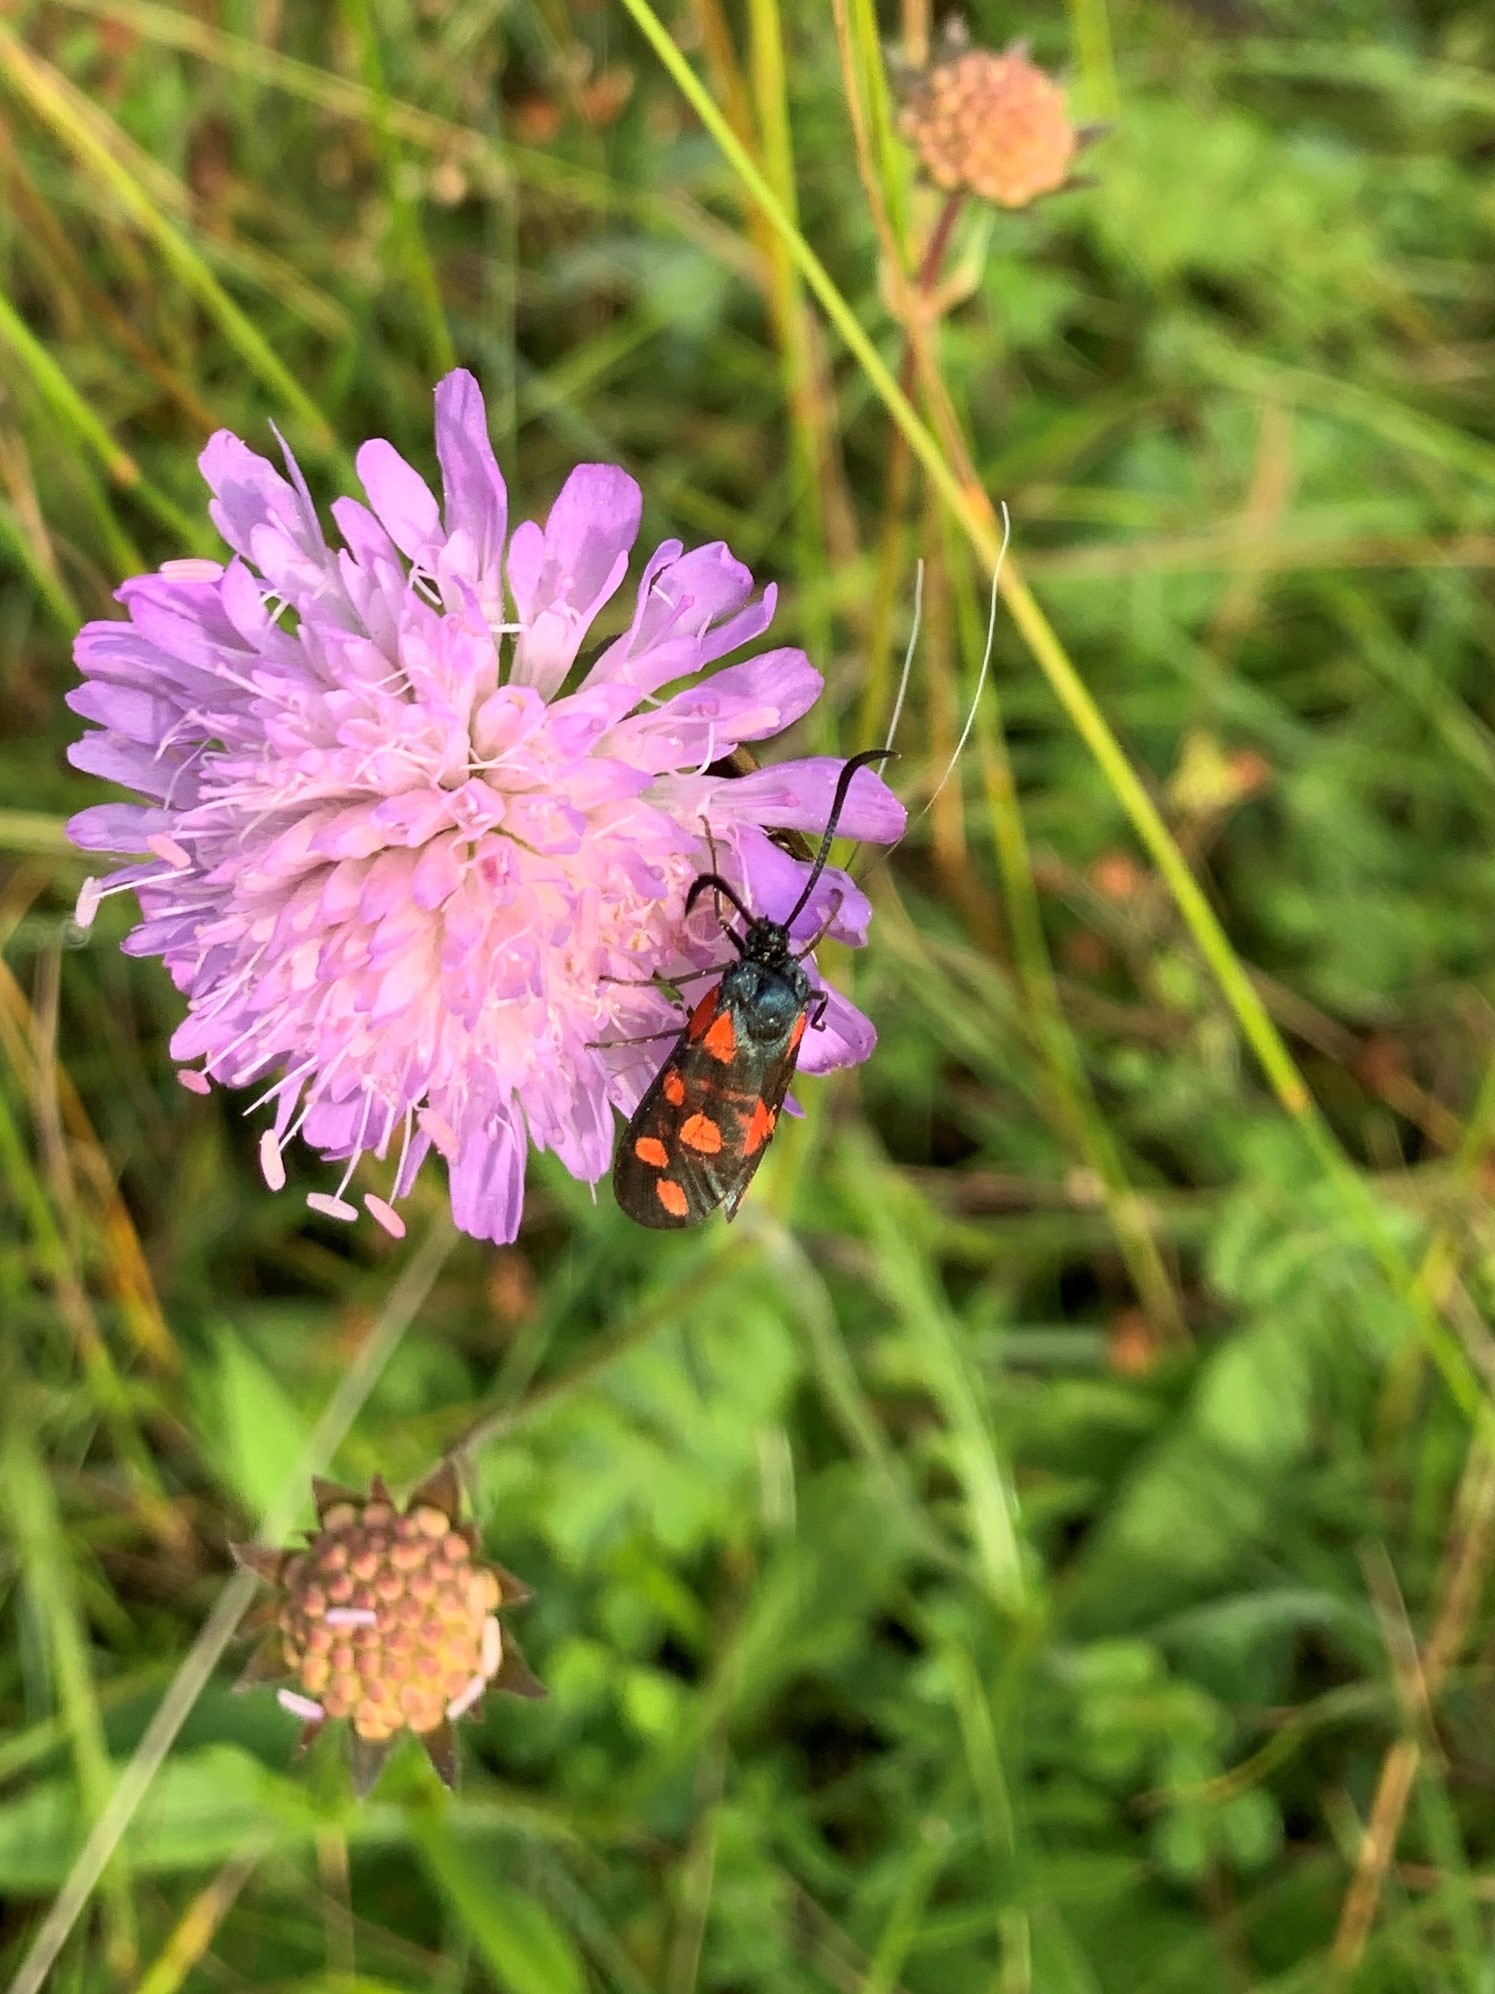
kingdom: Animalia
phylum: Arthropoda
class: Insecta
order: Lepidoptera
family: Zygaenidae
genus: Zygaena
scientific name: Zygaena transalpina
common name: Southern six spot burnet
